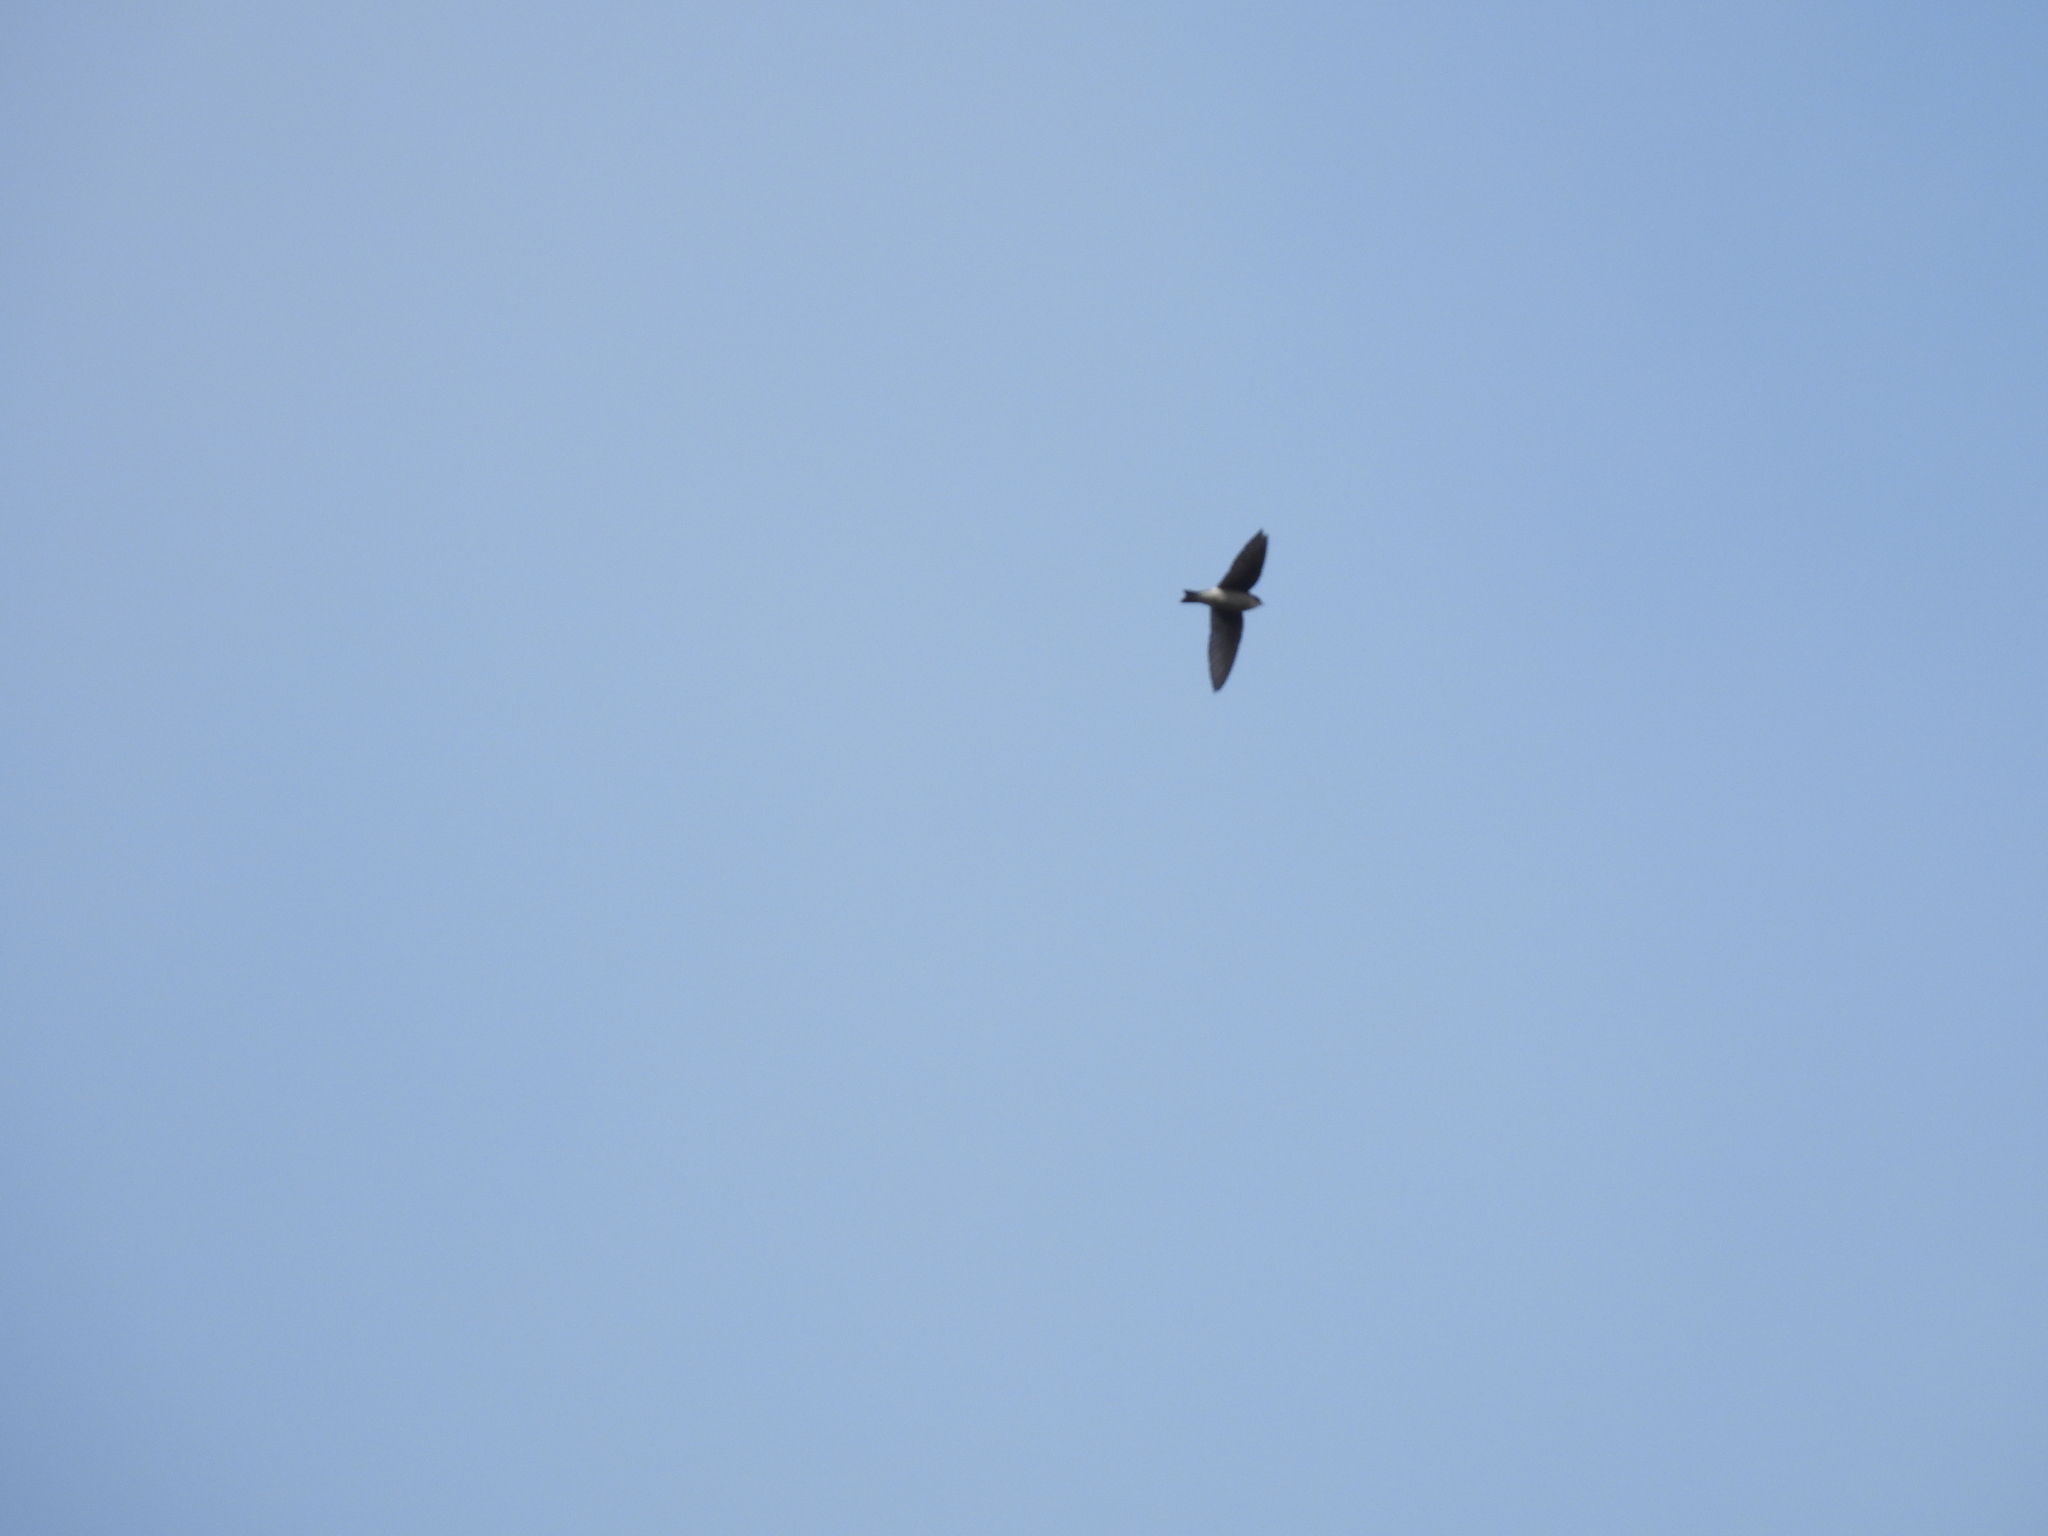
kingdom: Animalia
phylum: Chordata
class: Aves
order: Passeriformes
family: Hirundinidae
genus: Tachycineta
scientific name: Tachycineta bicolor
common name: Tree swallow
